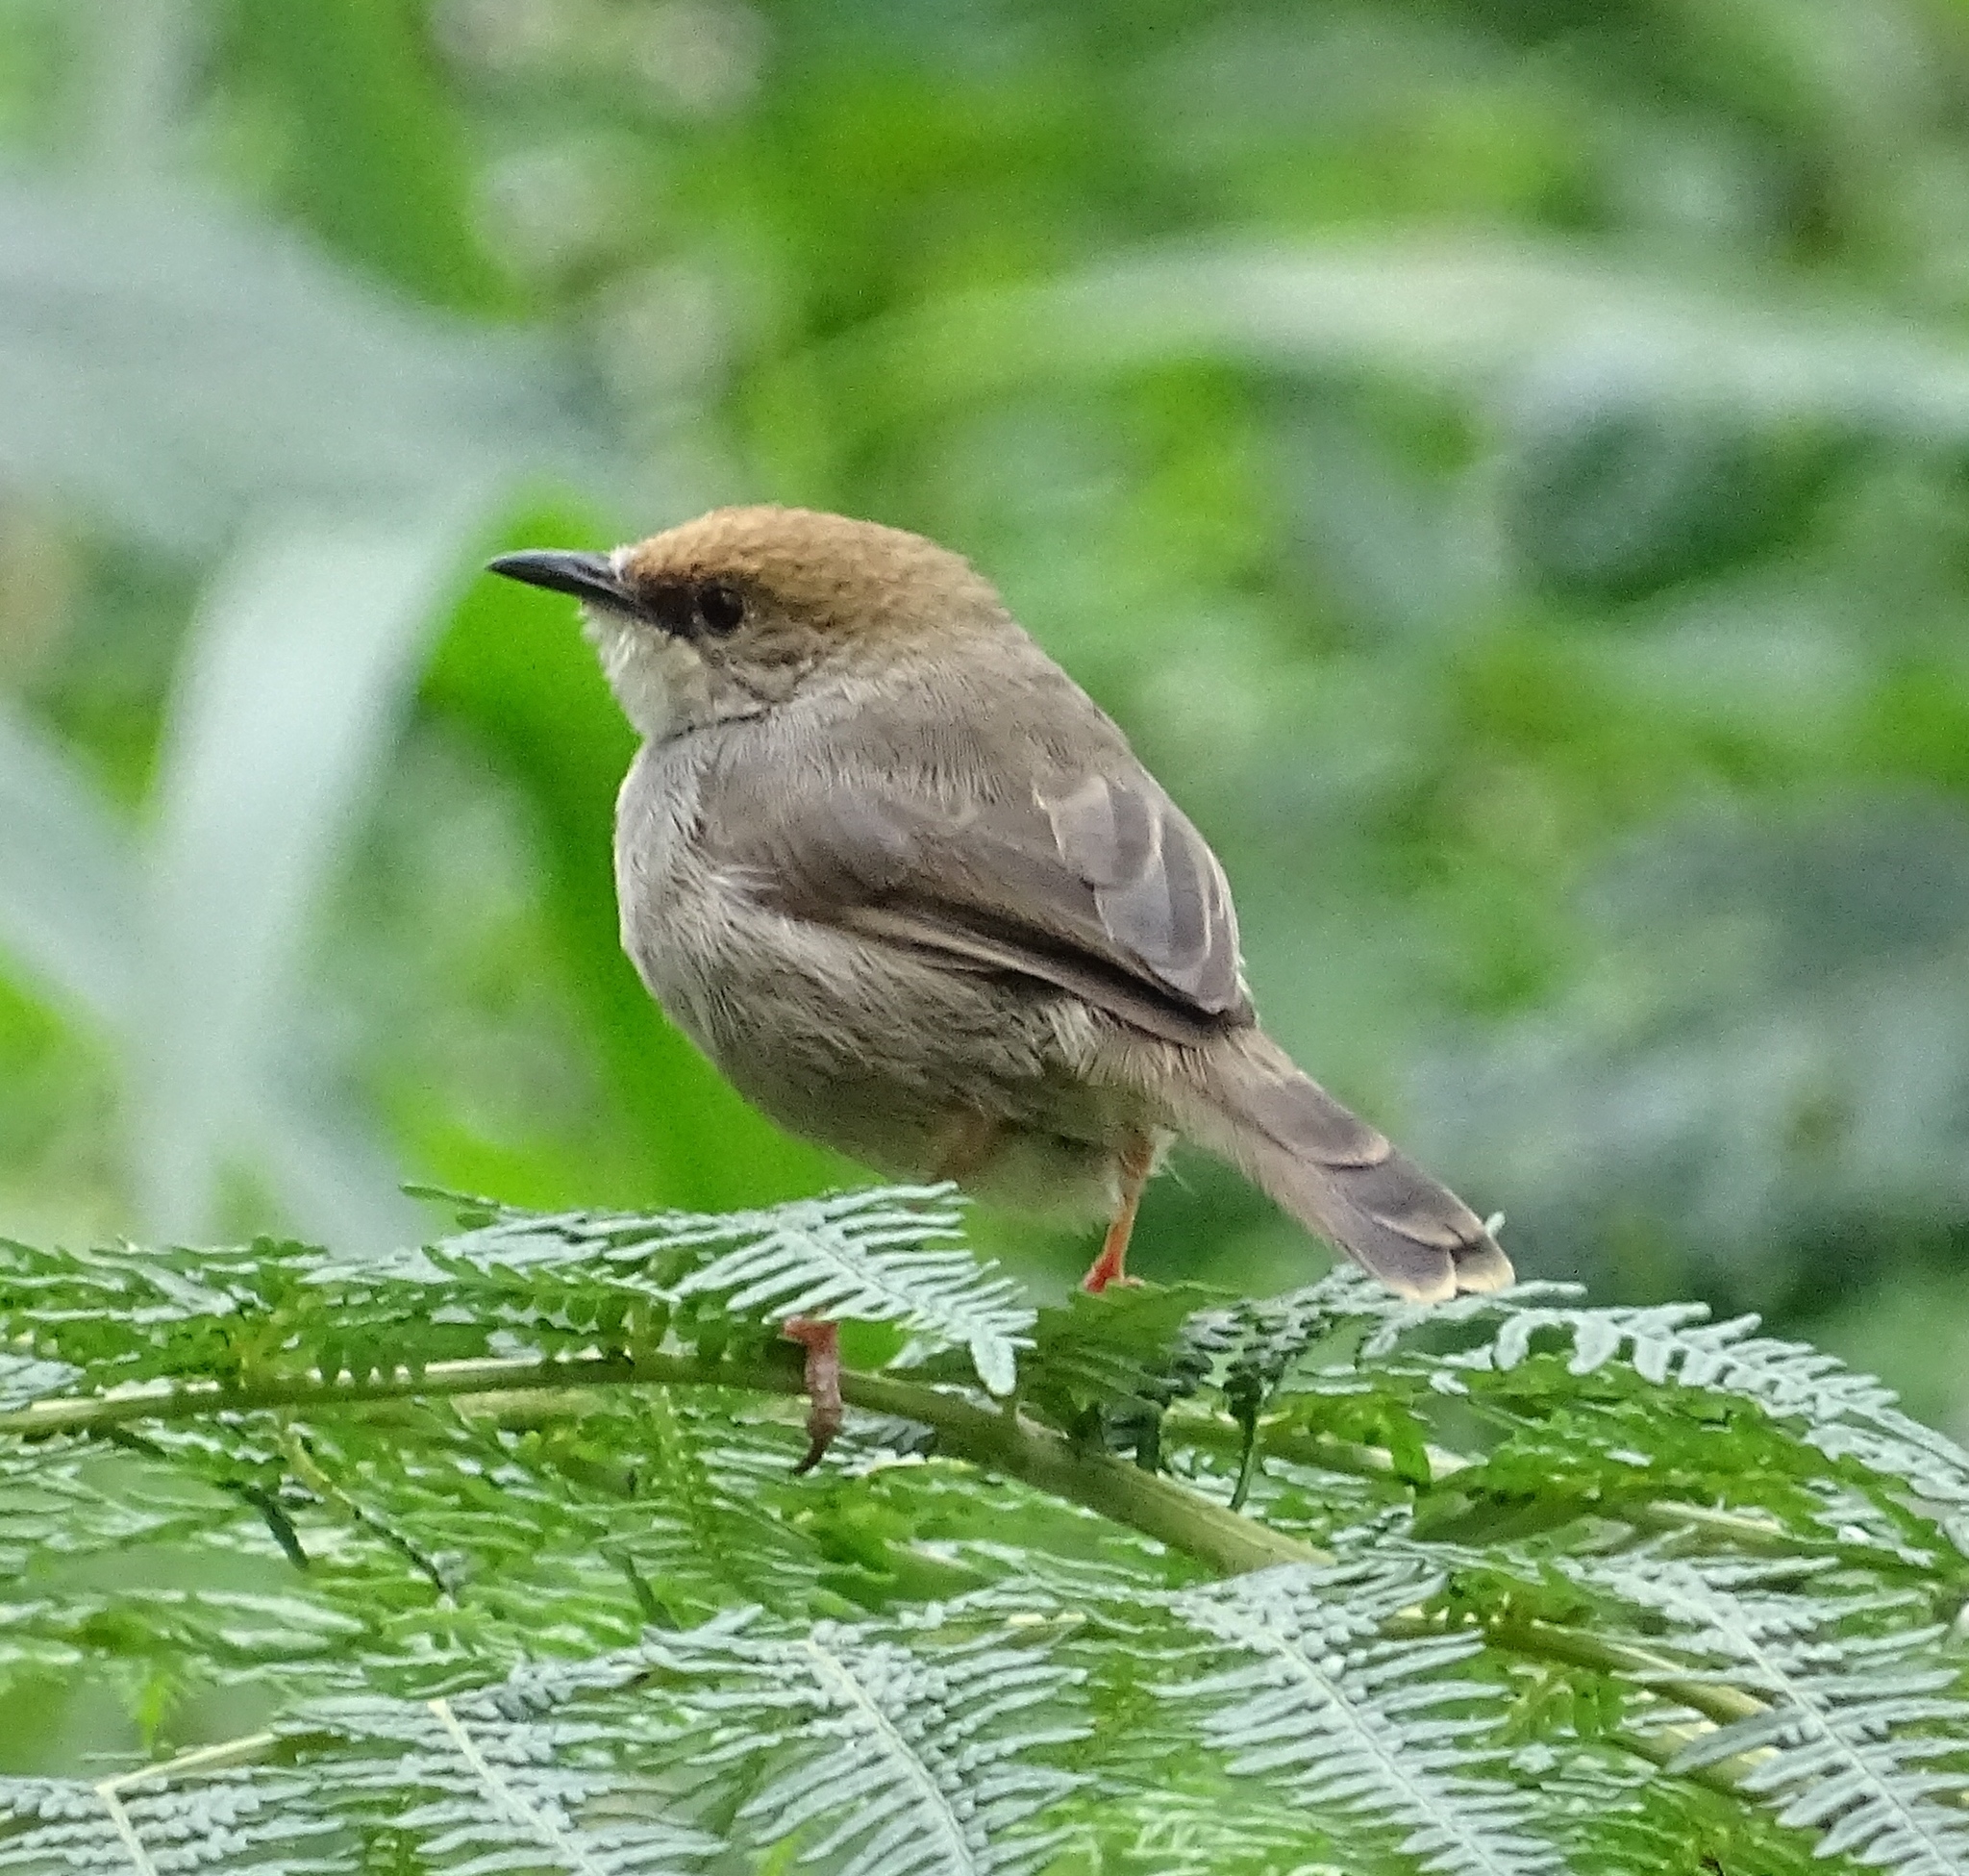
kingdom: Animalia
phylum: Chordata
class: Aves
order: Passeriformes
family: Cisticolidae
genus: Cisticola
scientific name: Cisticola chubbi
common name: Chubb's cisticola
